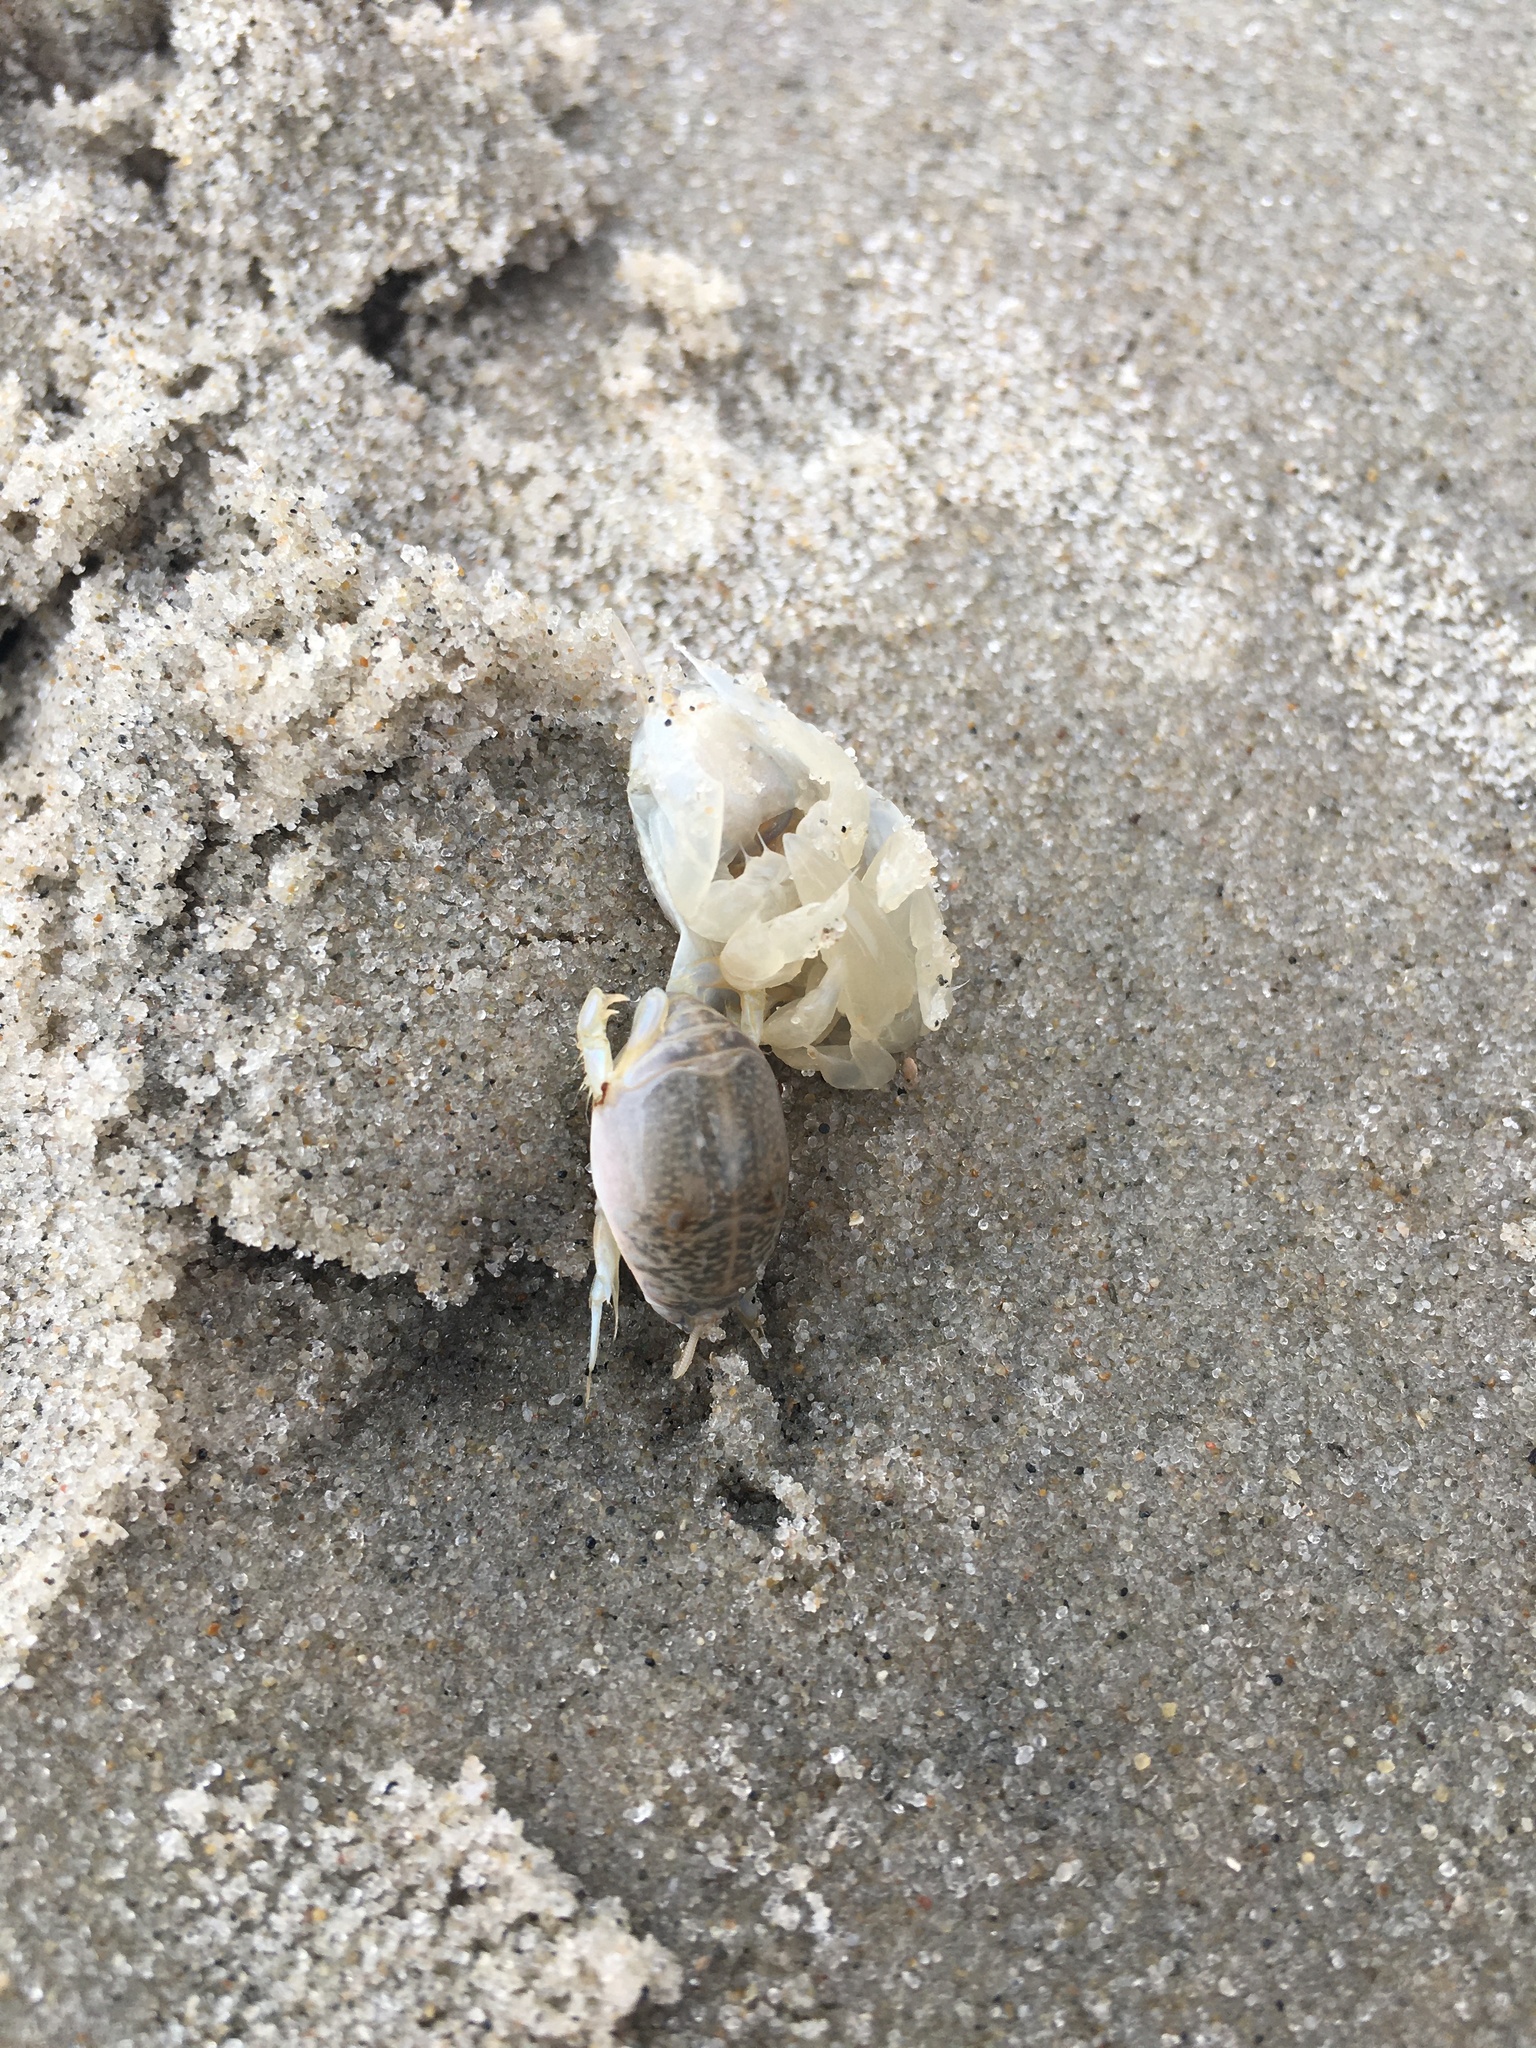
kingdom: Animalia
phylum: Arthropoda
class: Malacostraca
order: Decapoda
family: Hippidae
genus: Emerita
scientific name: Emerita talpoida
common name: Atlantic sand crab
